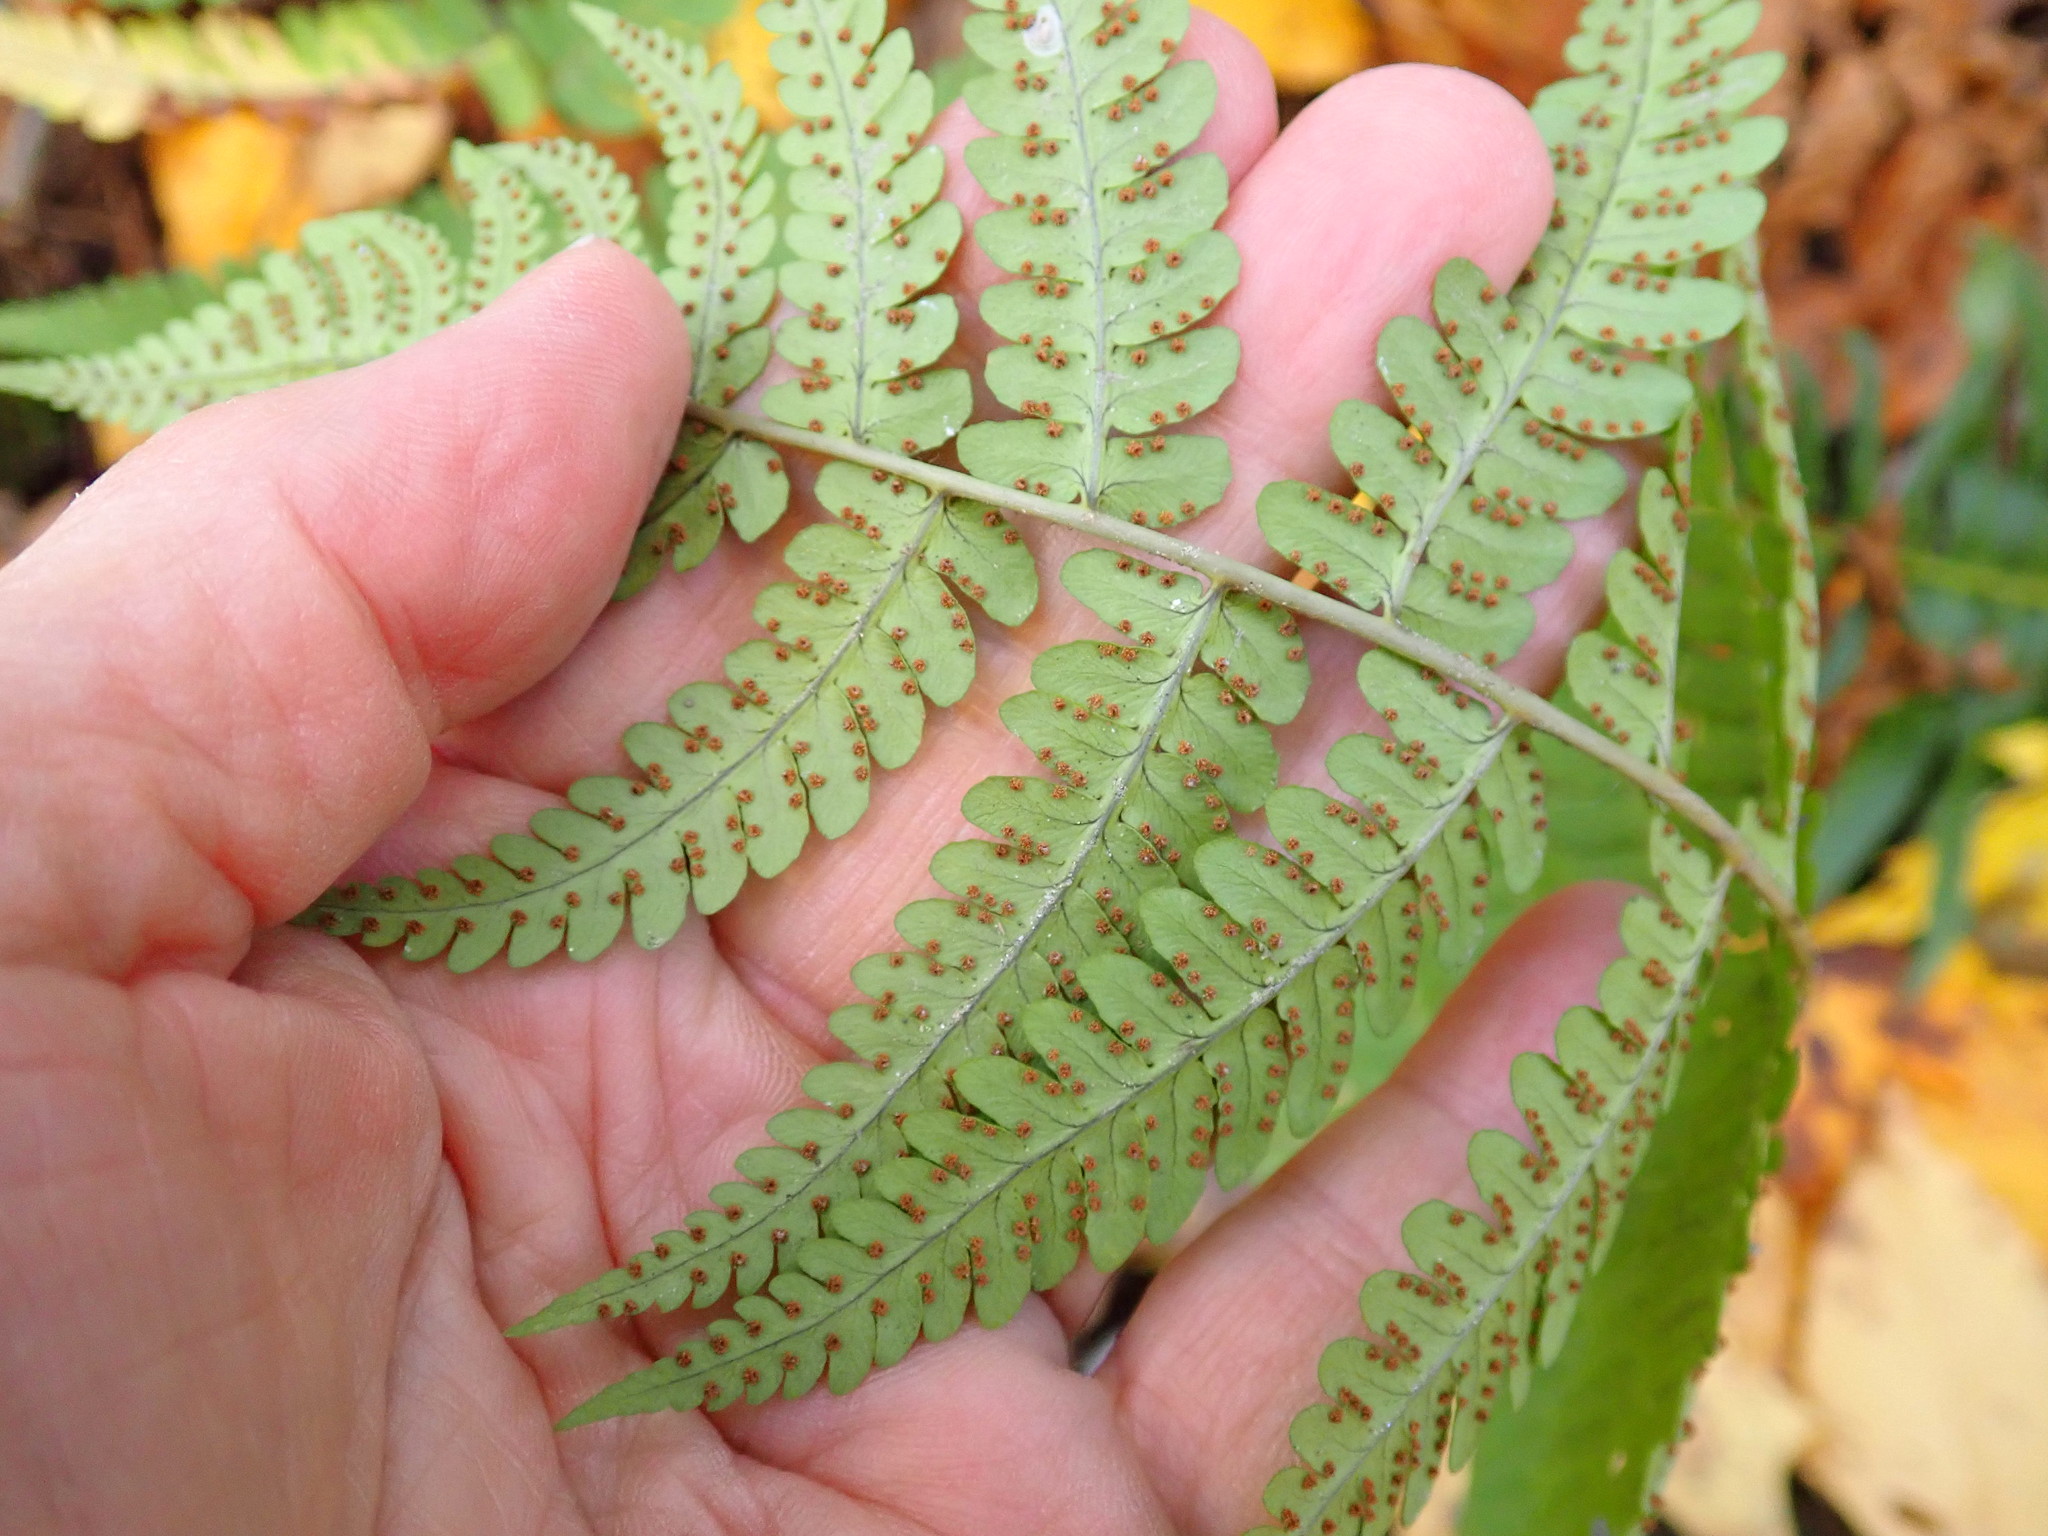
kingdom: Plantae
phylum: Tracheophyta
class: Polypodiopsida
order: Polypodiales
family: Dryopteridaceae
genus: Dryopteris
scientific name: Dryopteris marginalis
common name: Marginal wood fern
